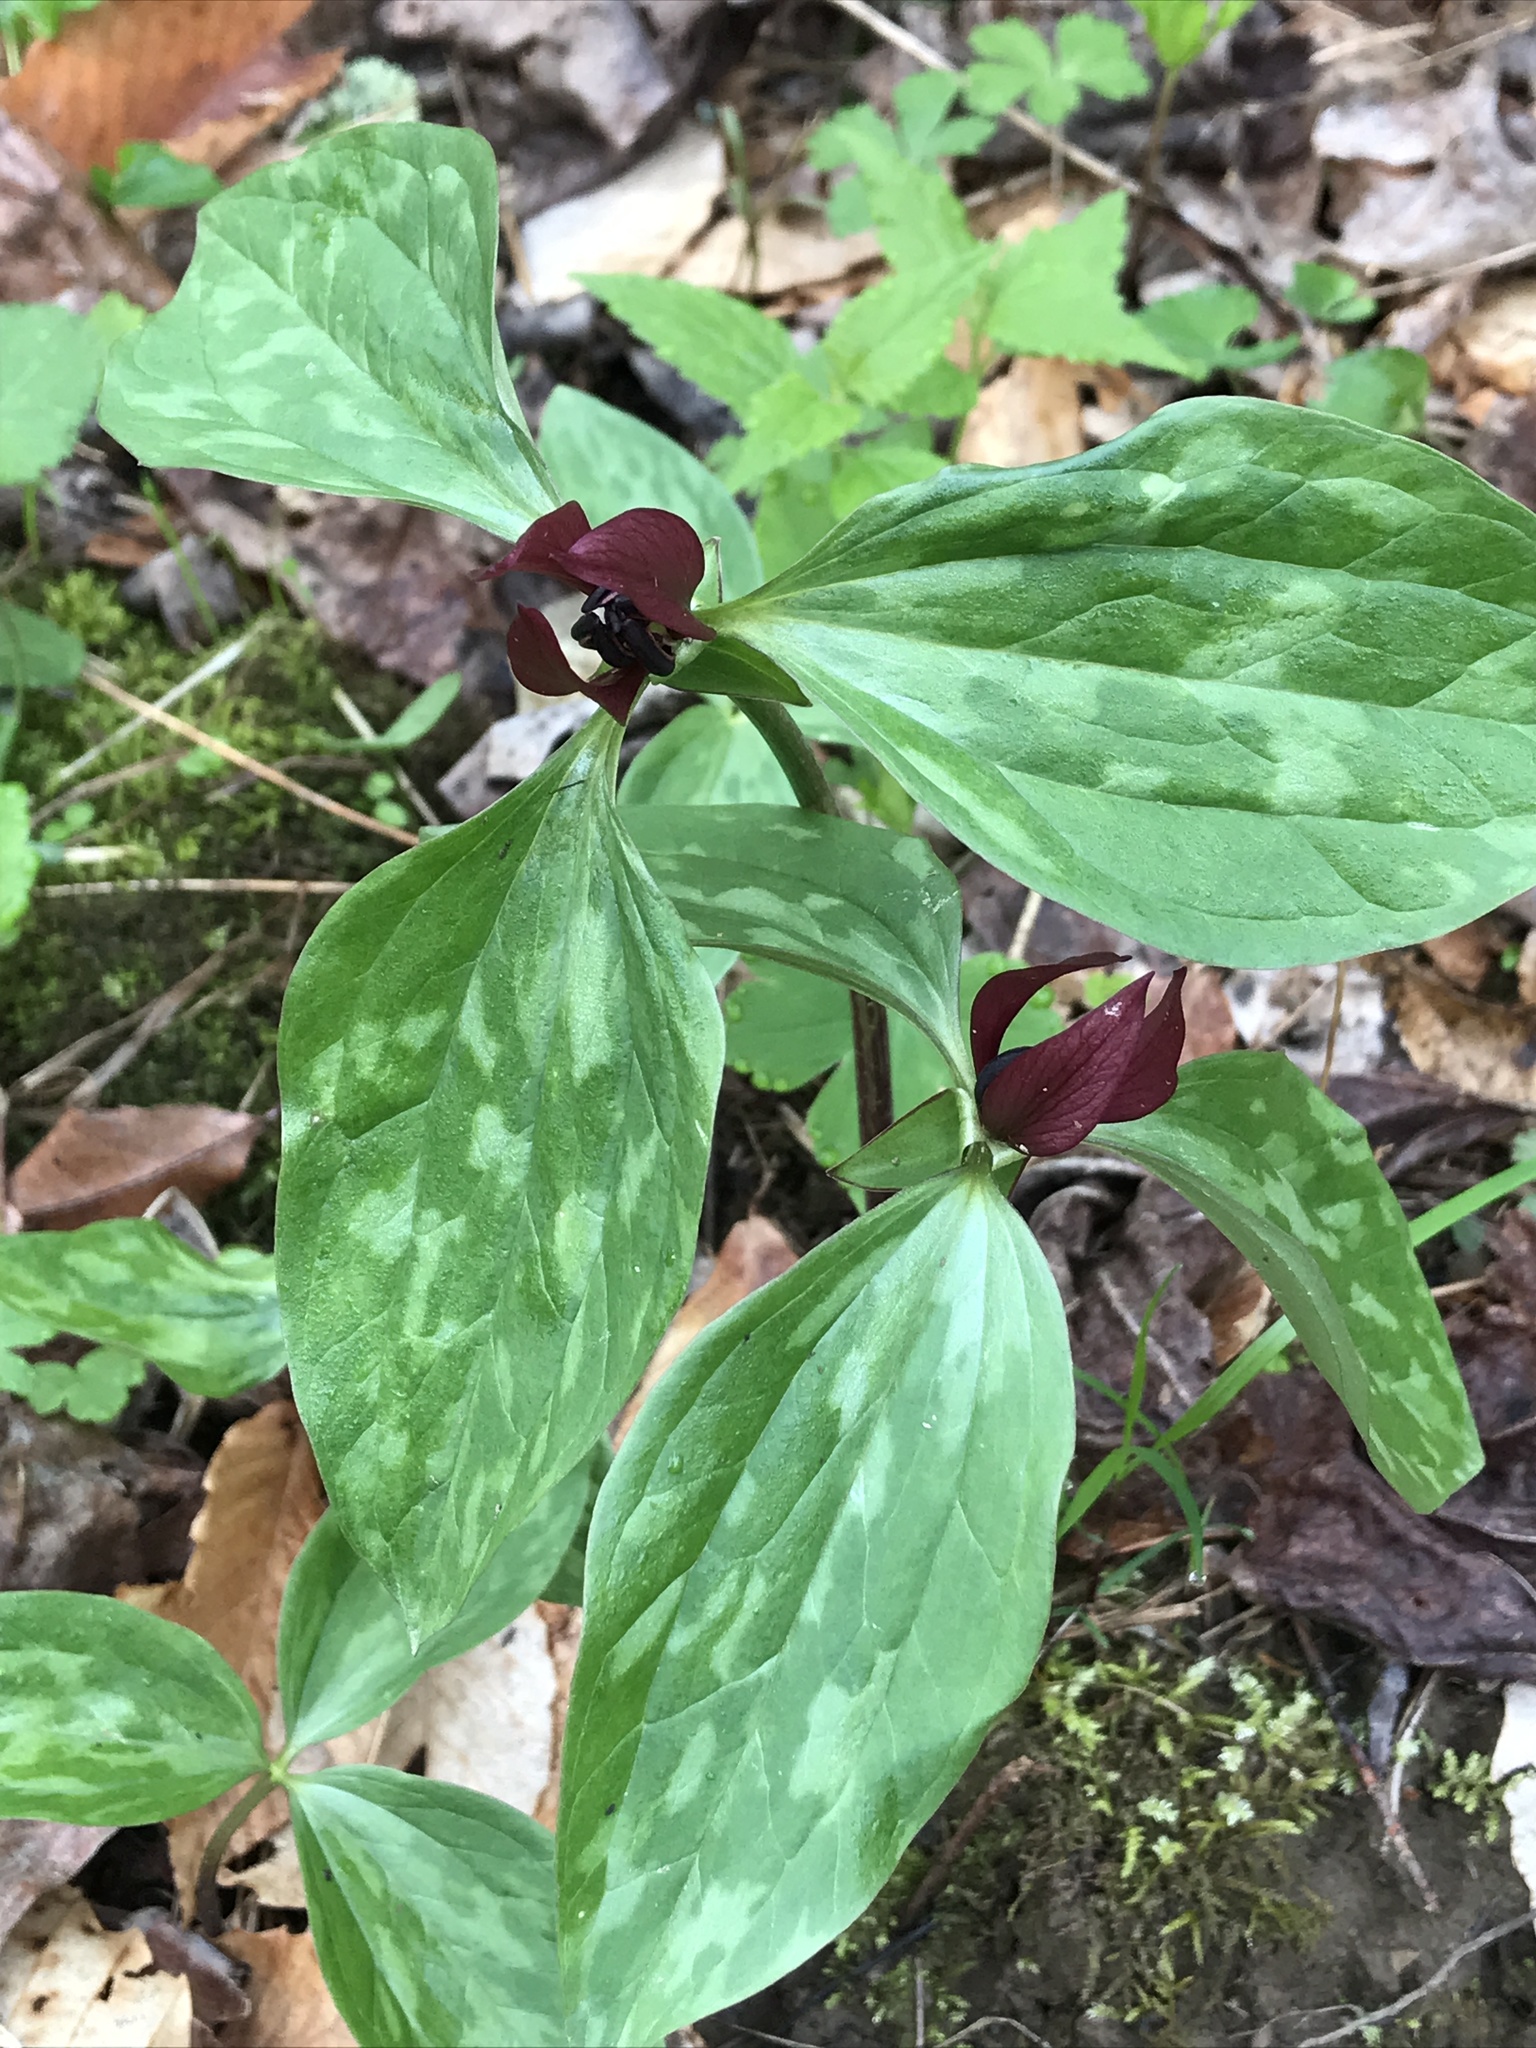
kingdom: Plantae
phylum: Tracheophyta
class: Liliopsida
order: Liliales
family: Melanthiaceae
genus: Trillium
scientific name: Trillium recurvatum
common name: Bloody butcher
